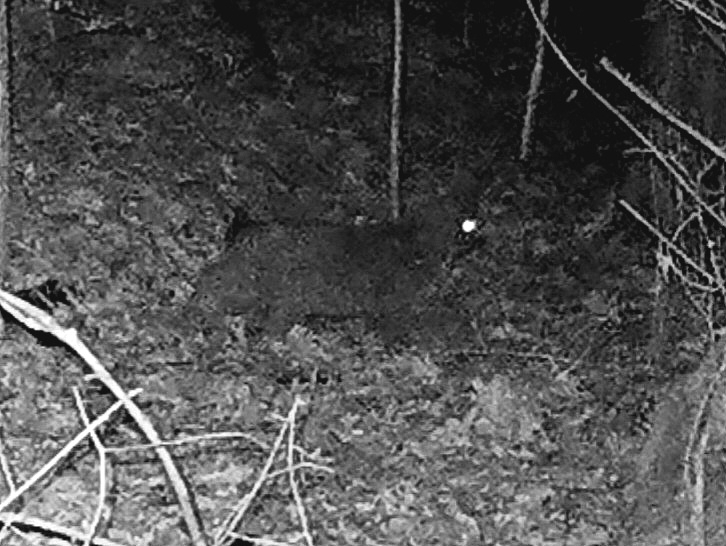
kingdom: Animalia
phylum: Chordata
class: Mammalia
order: Carnivora
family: Felidae
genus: Lynx
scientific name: Lynx rufus
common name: Bobcat
